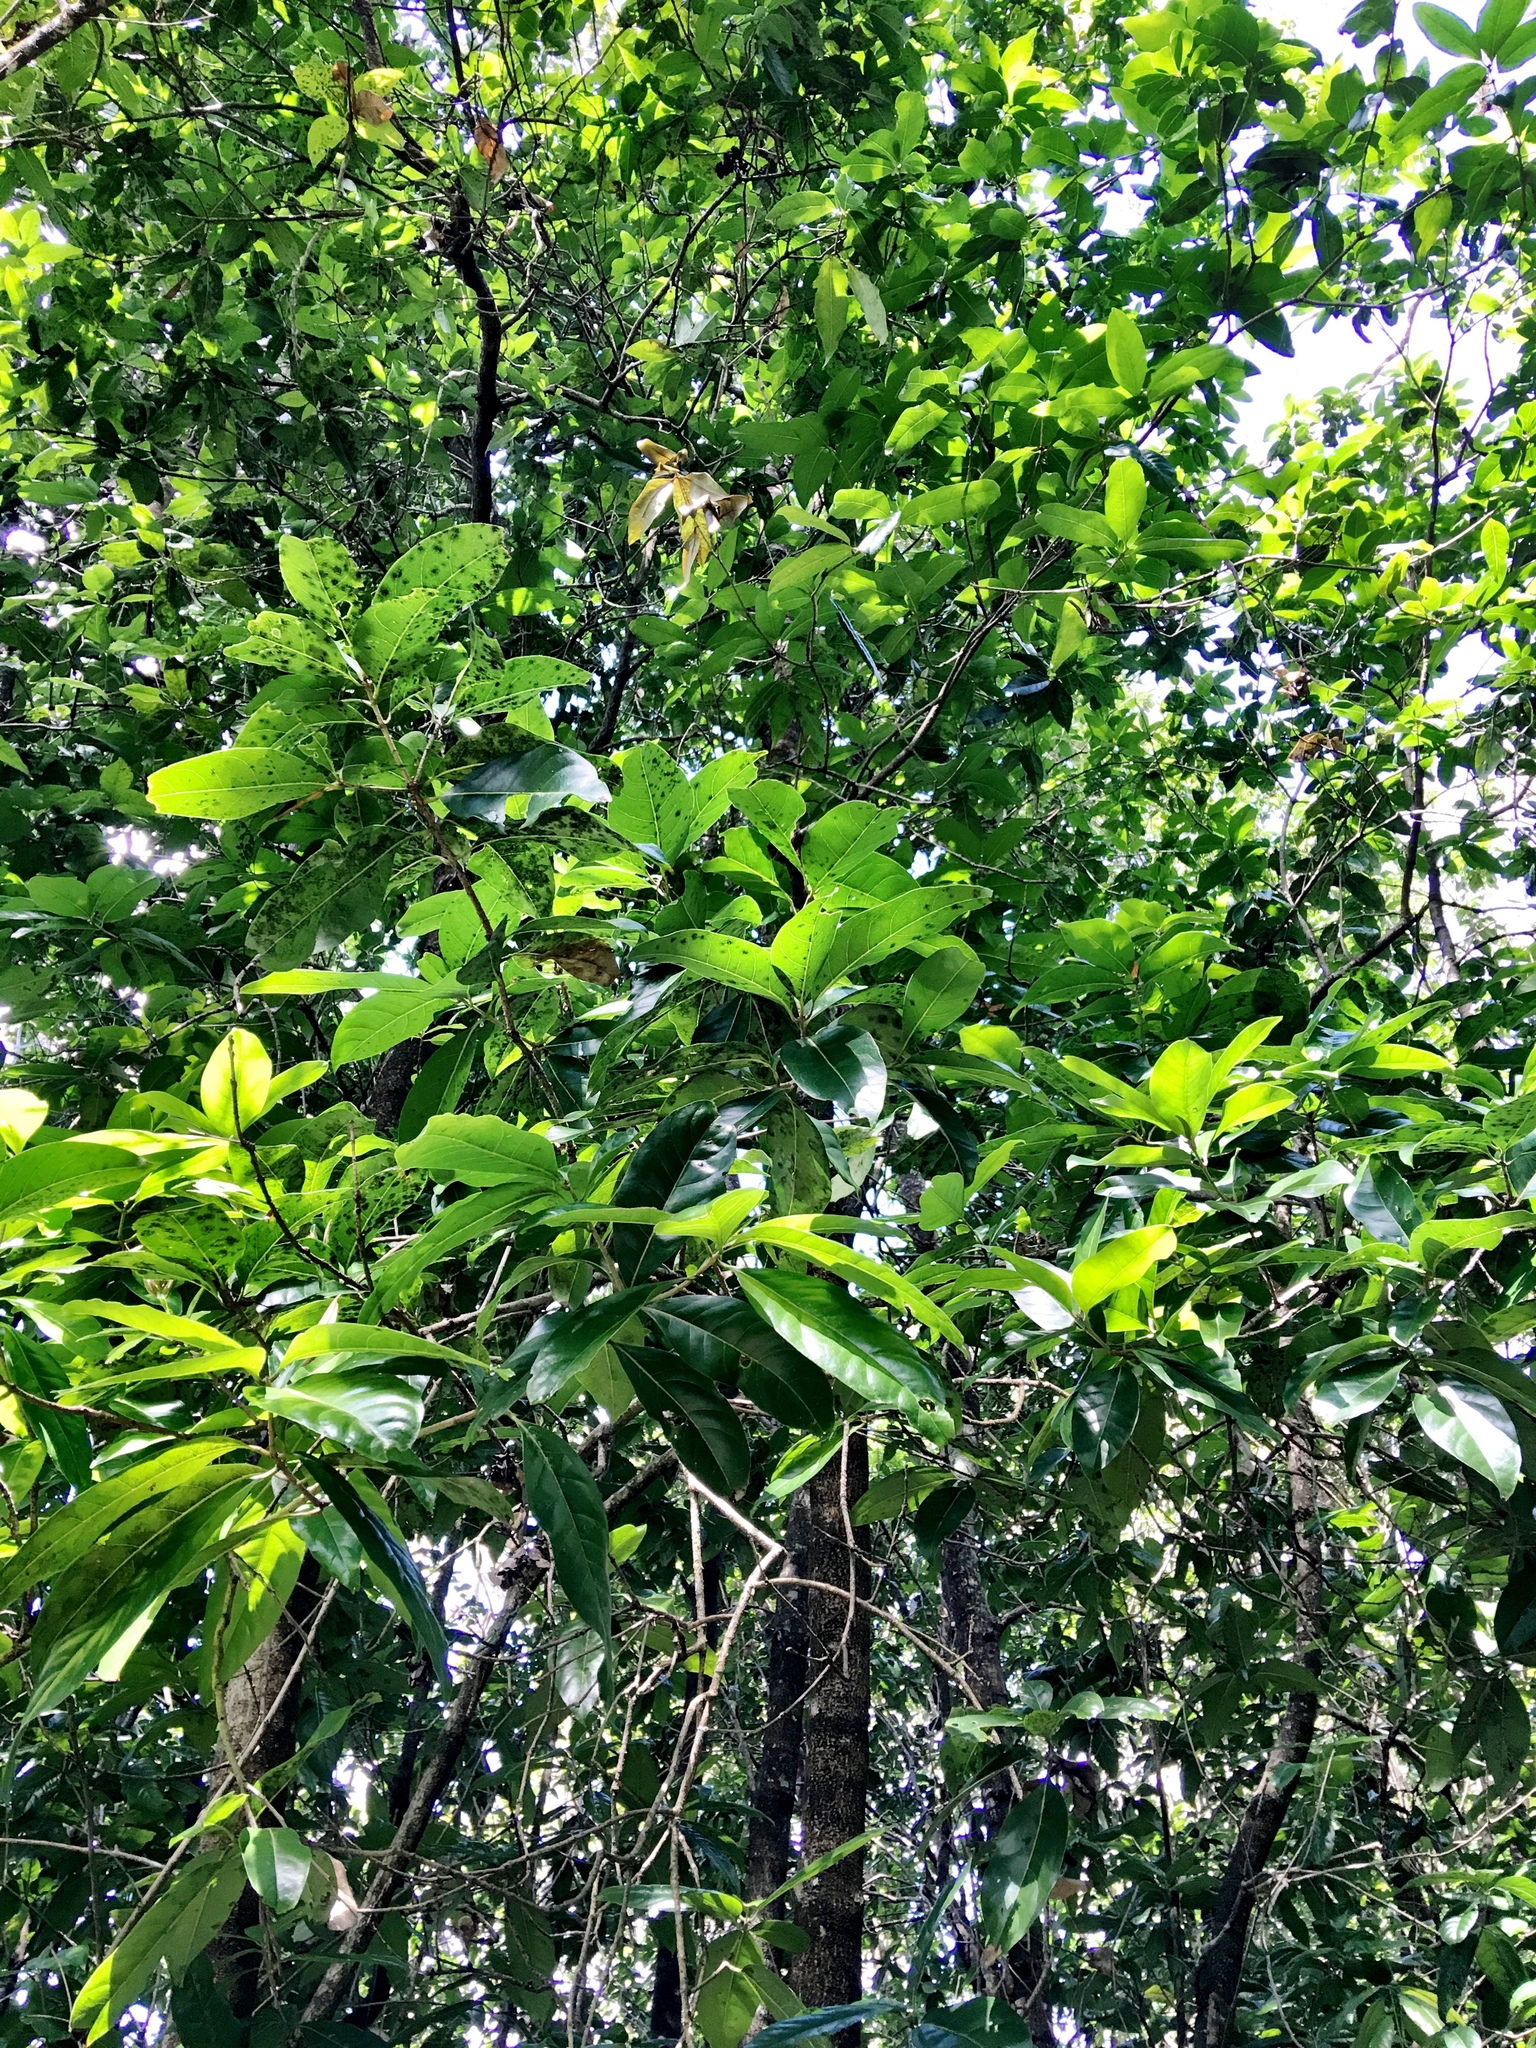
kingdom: Plantae
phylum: Tracheophyta
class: Magnoliopsida
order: Caryophyllales
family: Nyctaginaceae
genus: Ceodes
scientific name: Ceodes brunoniana
